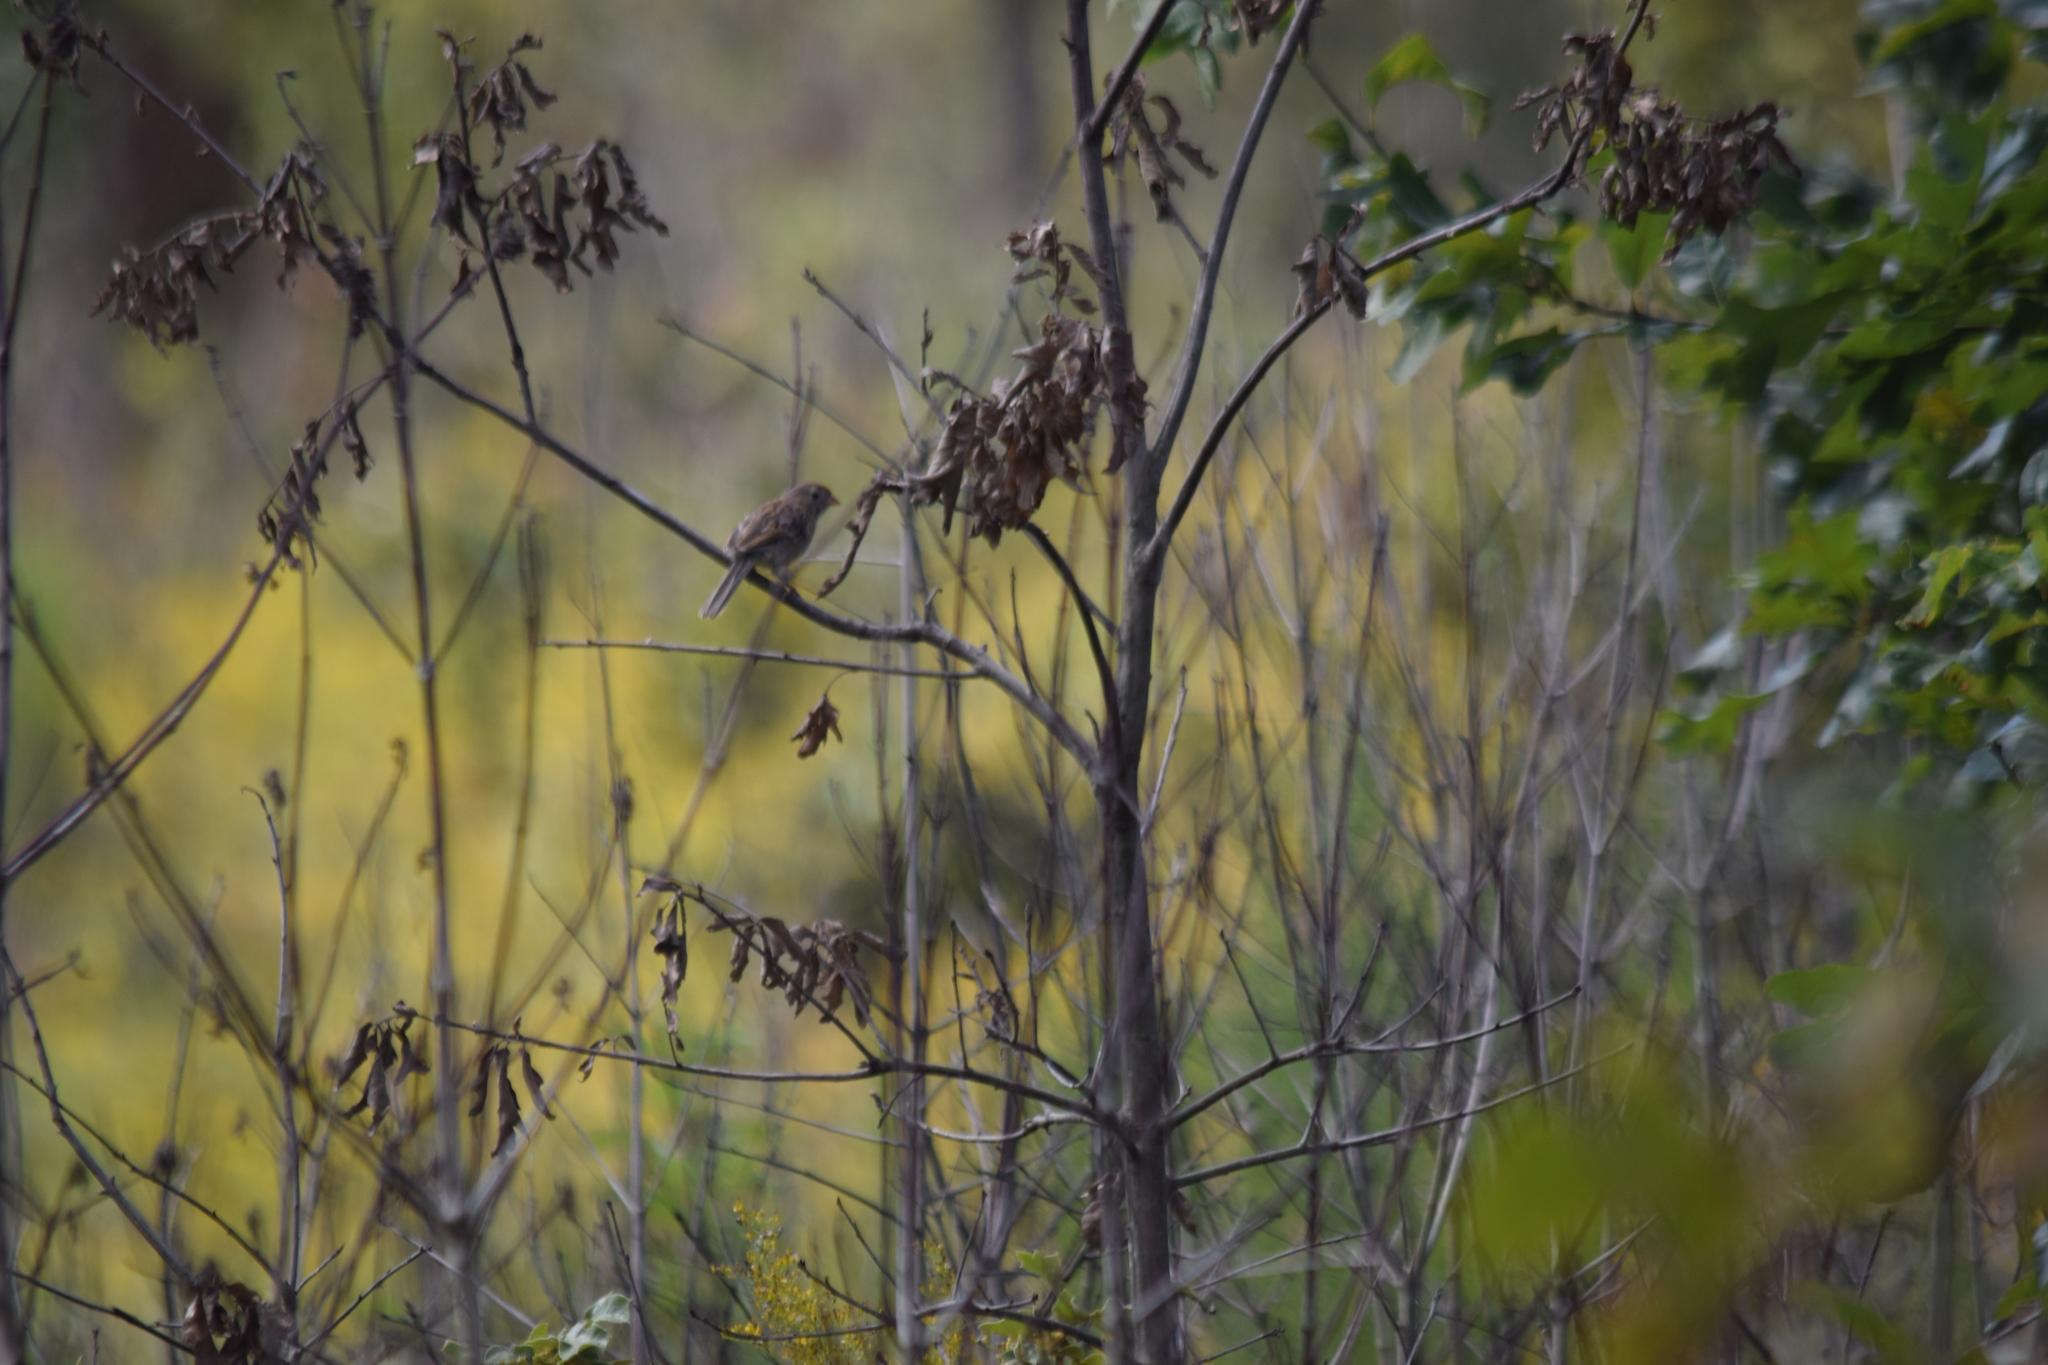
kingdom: Animalia
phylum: Chordata
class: Aves
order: Passeriformes
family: Passeridae
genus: Passer
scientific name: Passer domesticus
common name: House sparrow
